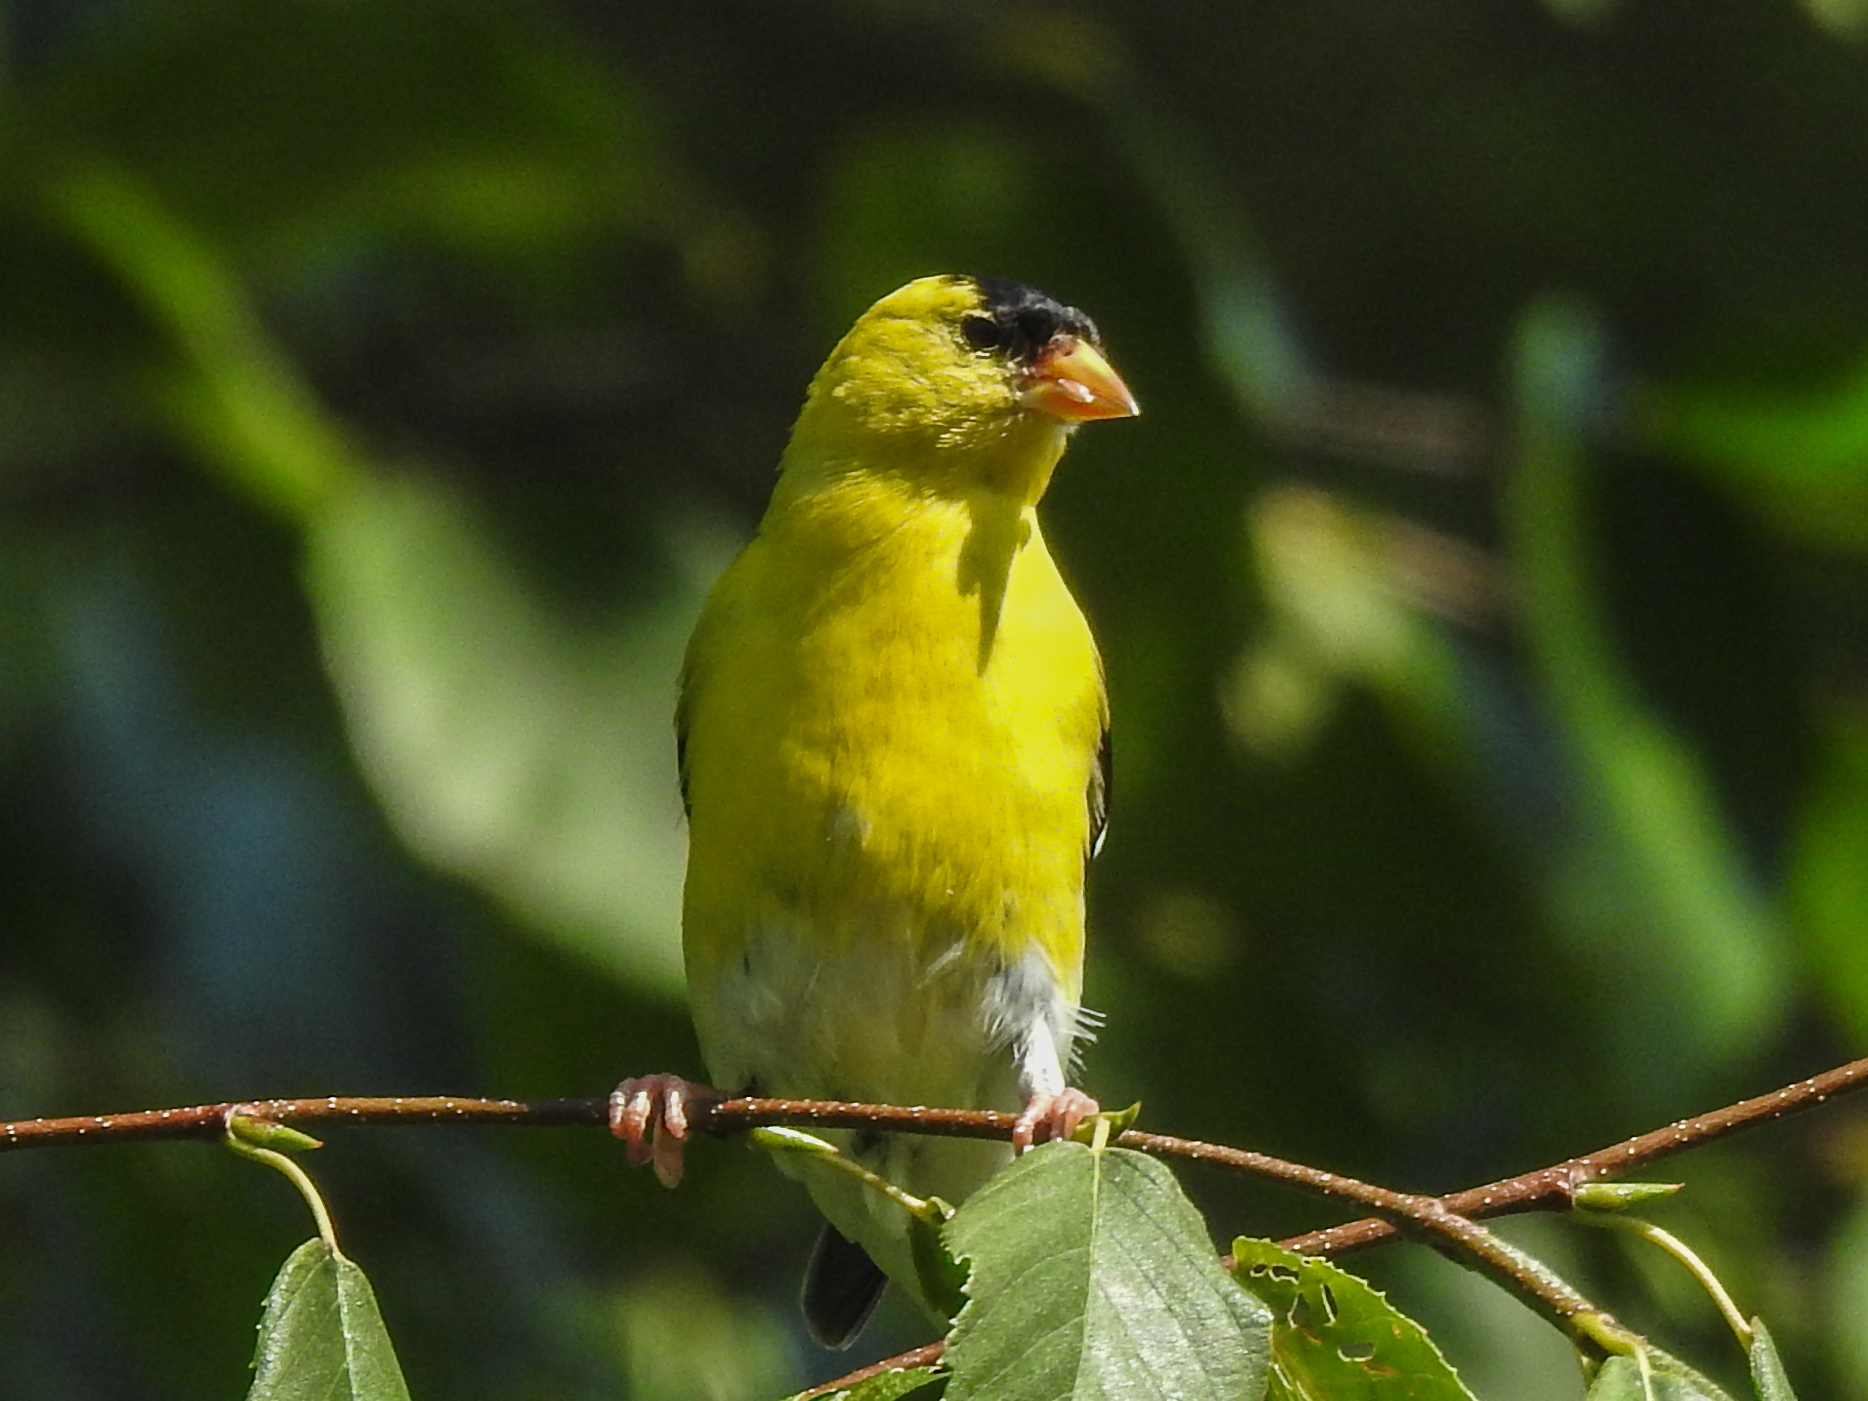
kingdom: Animalia
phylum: Chordata
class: Aves
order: Passeriformes
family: Fringillidae
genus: Spinus
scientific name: Spinus tristis
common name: American goldfinch
